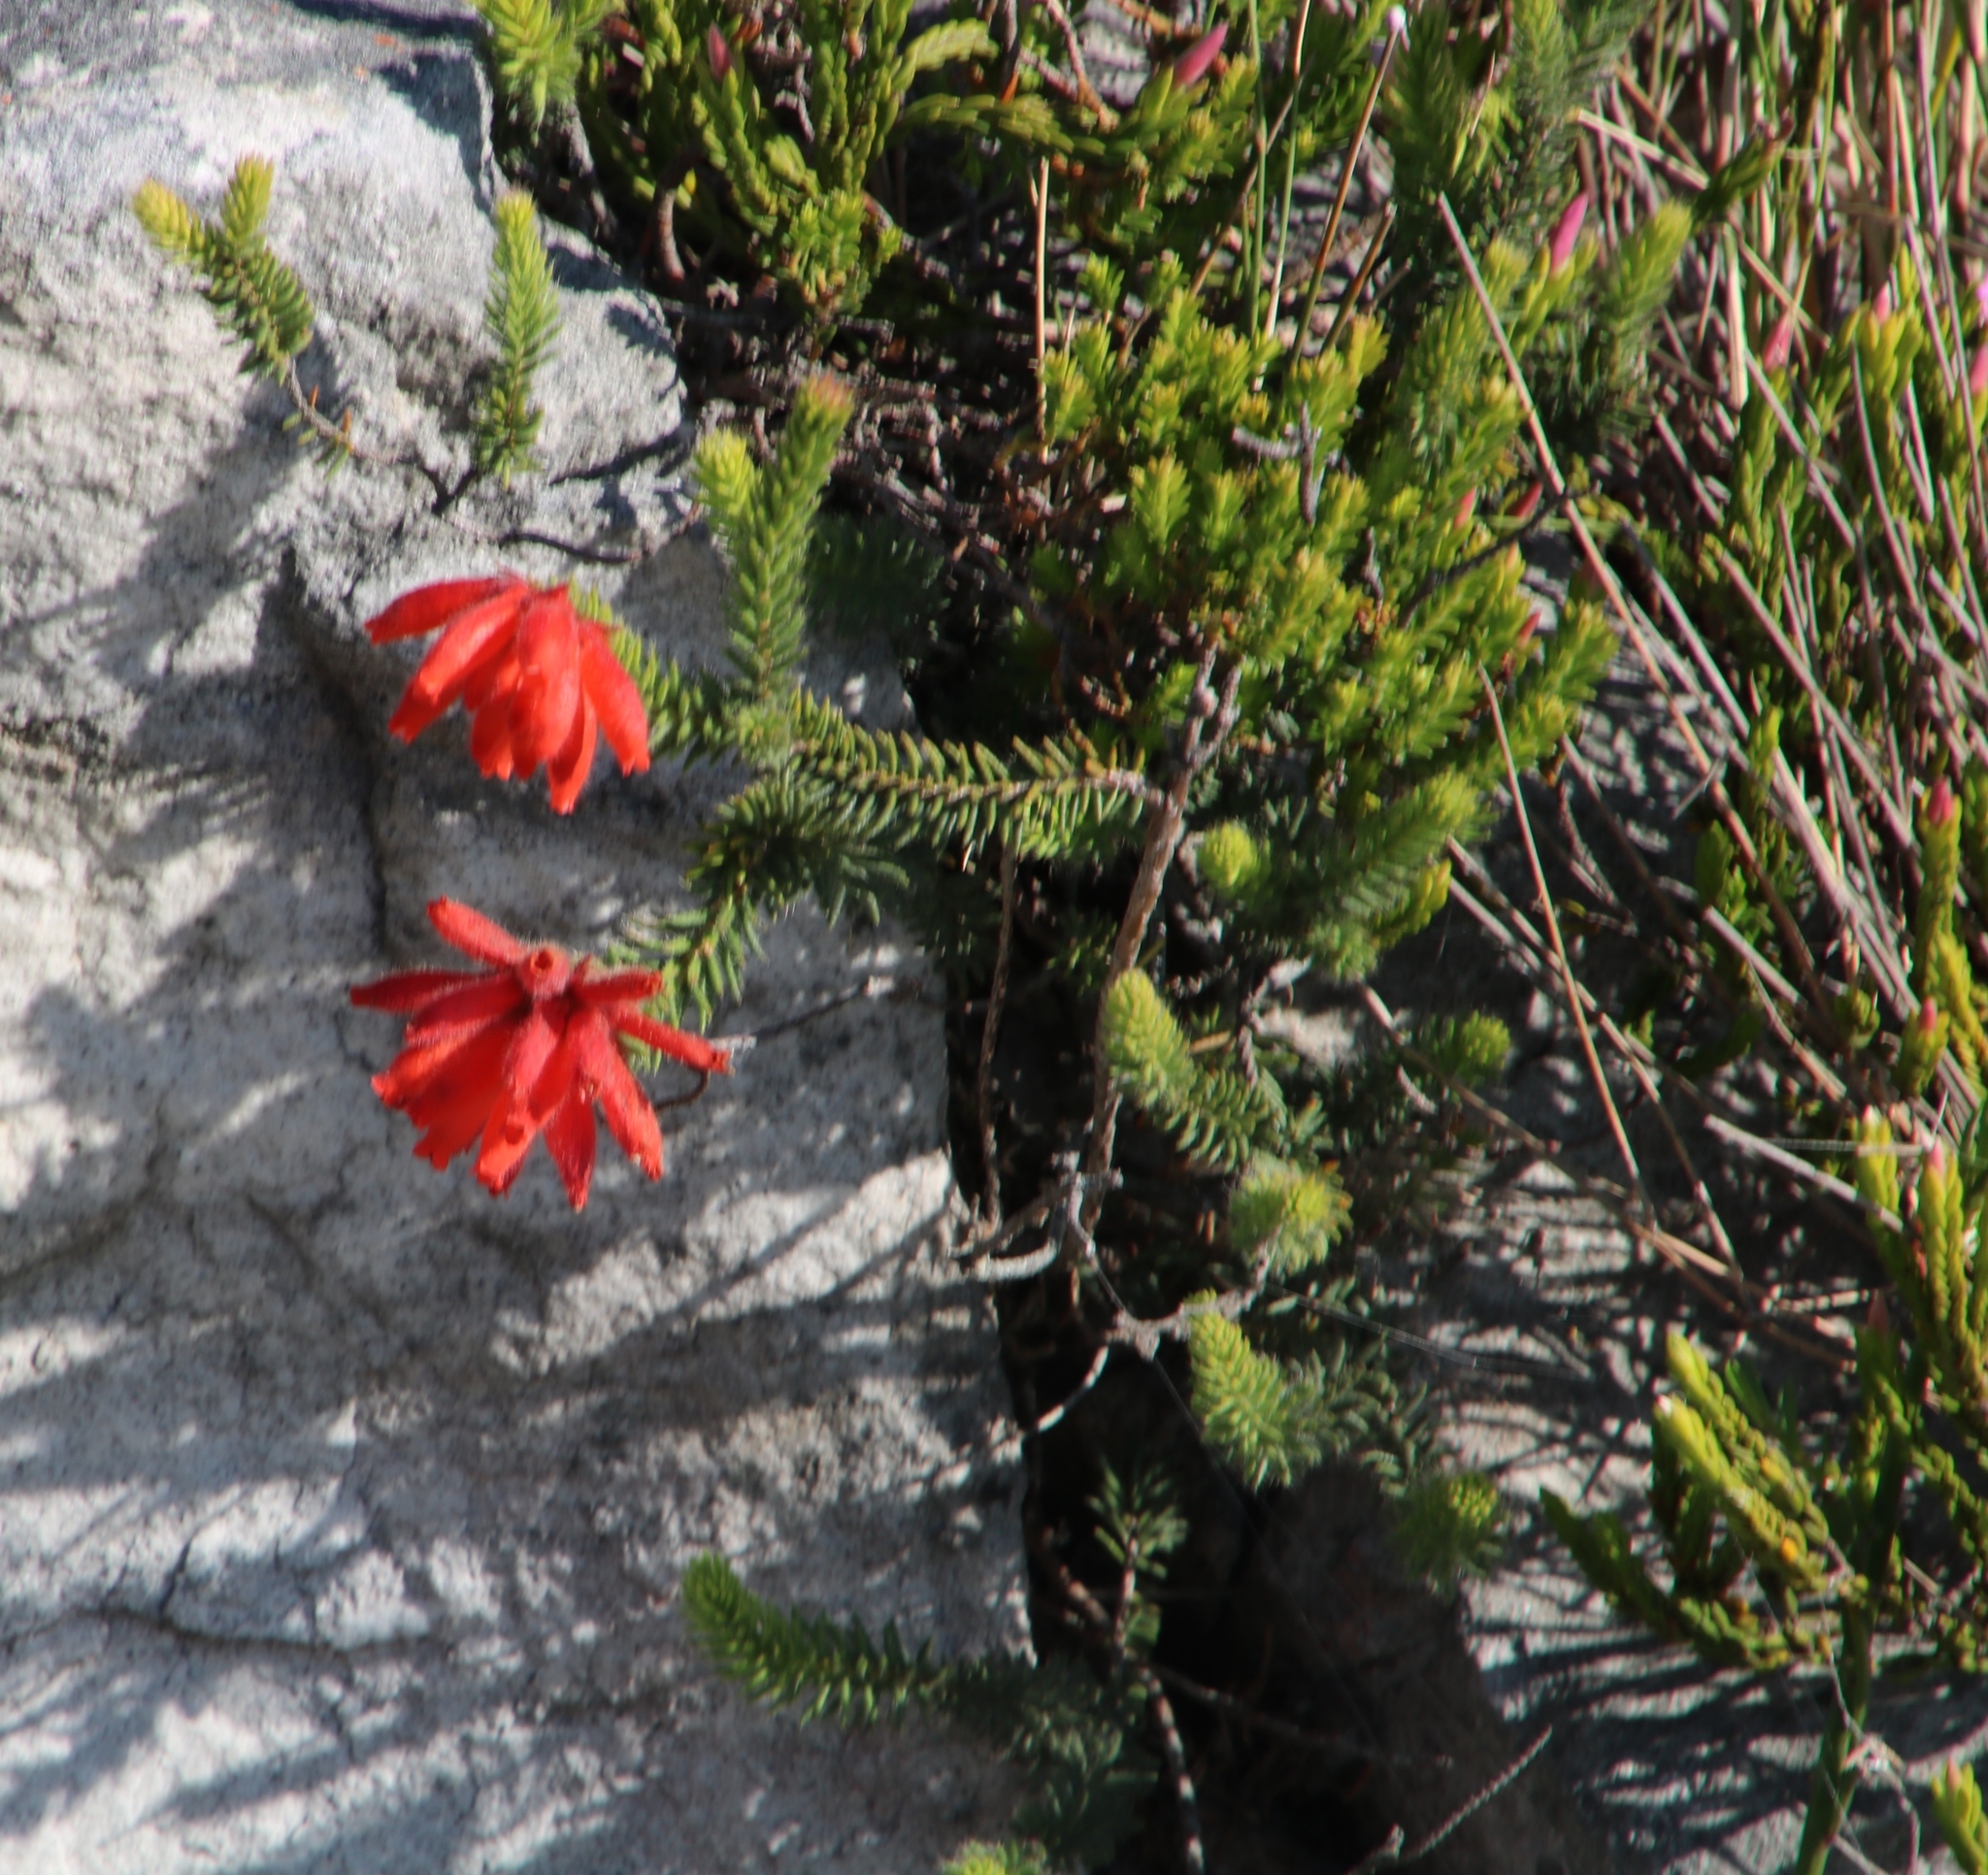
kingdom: Plantae
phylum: Tracheophyta
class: Magnoliopsida
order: Ericales
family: Ericaceae
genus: Erica
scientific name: Erica cerinthoides
